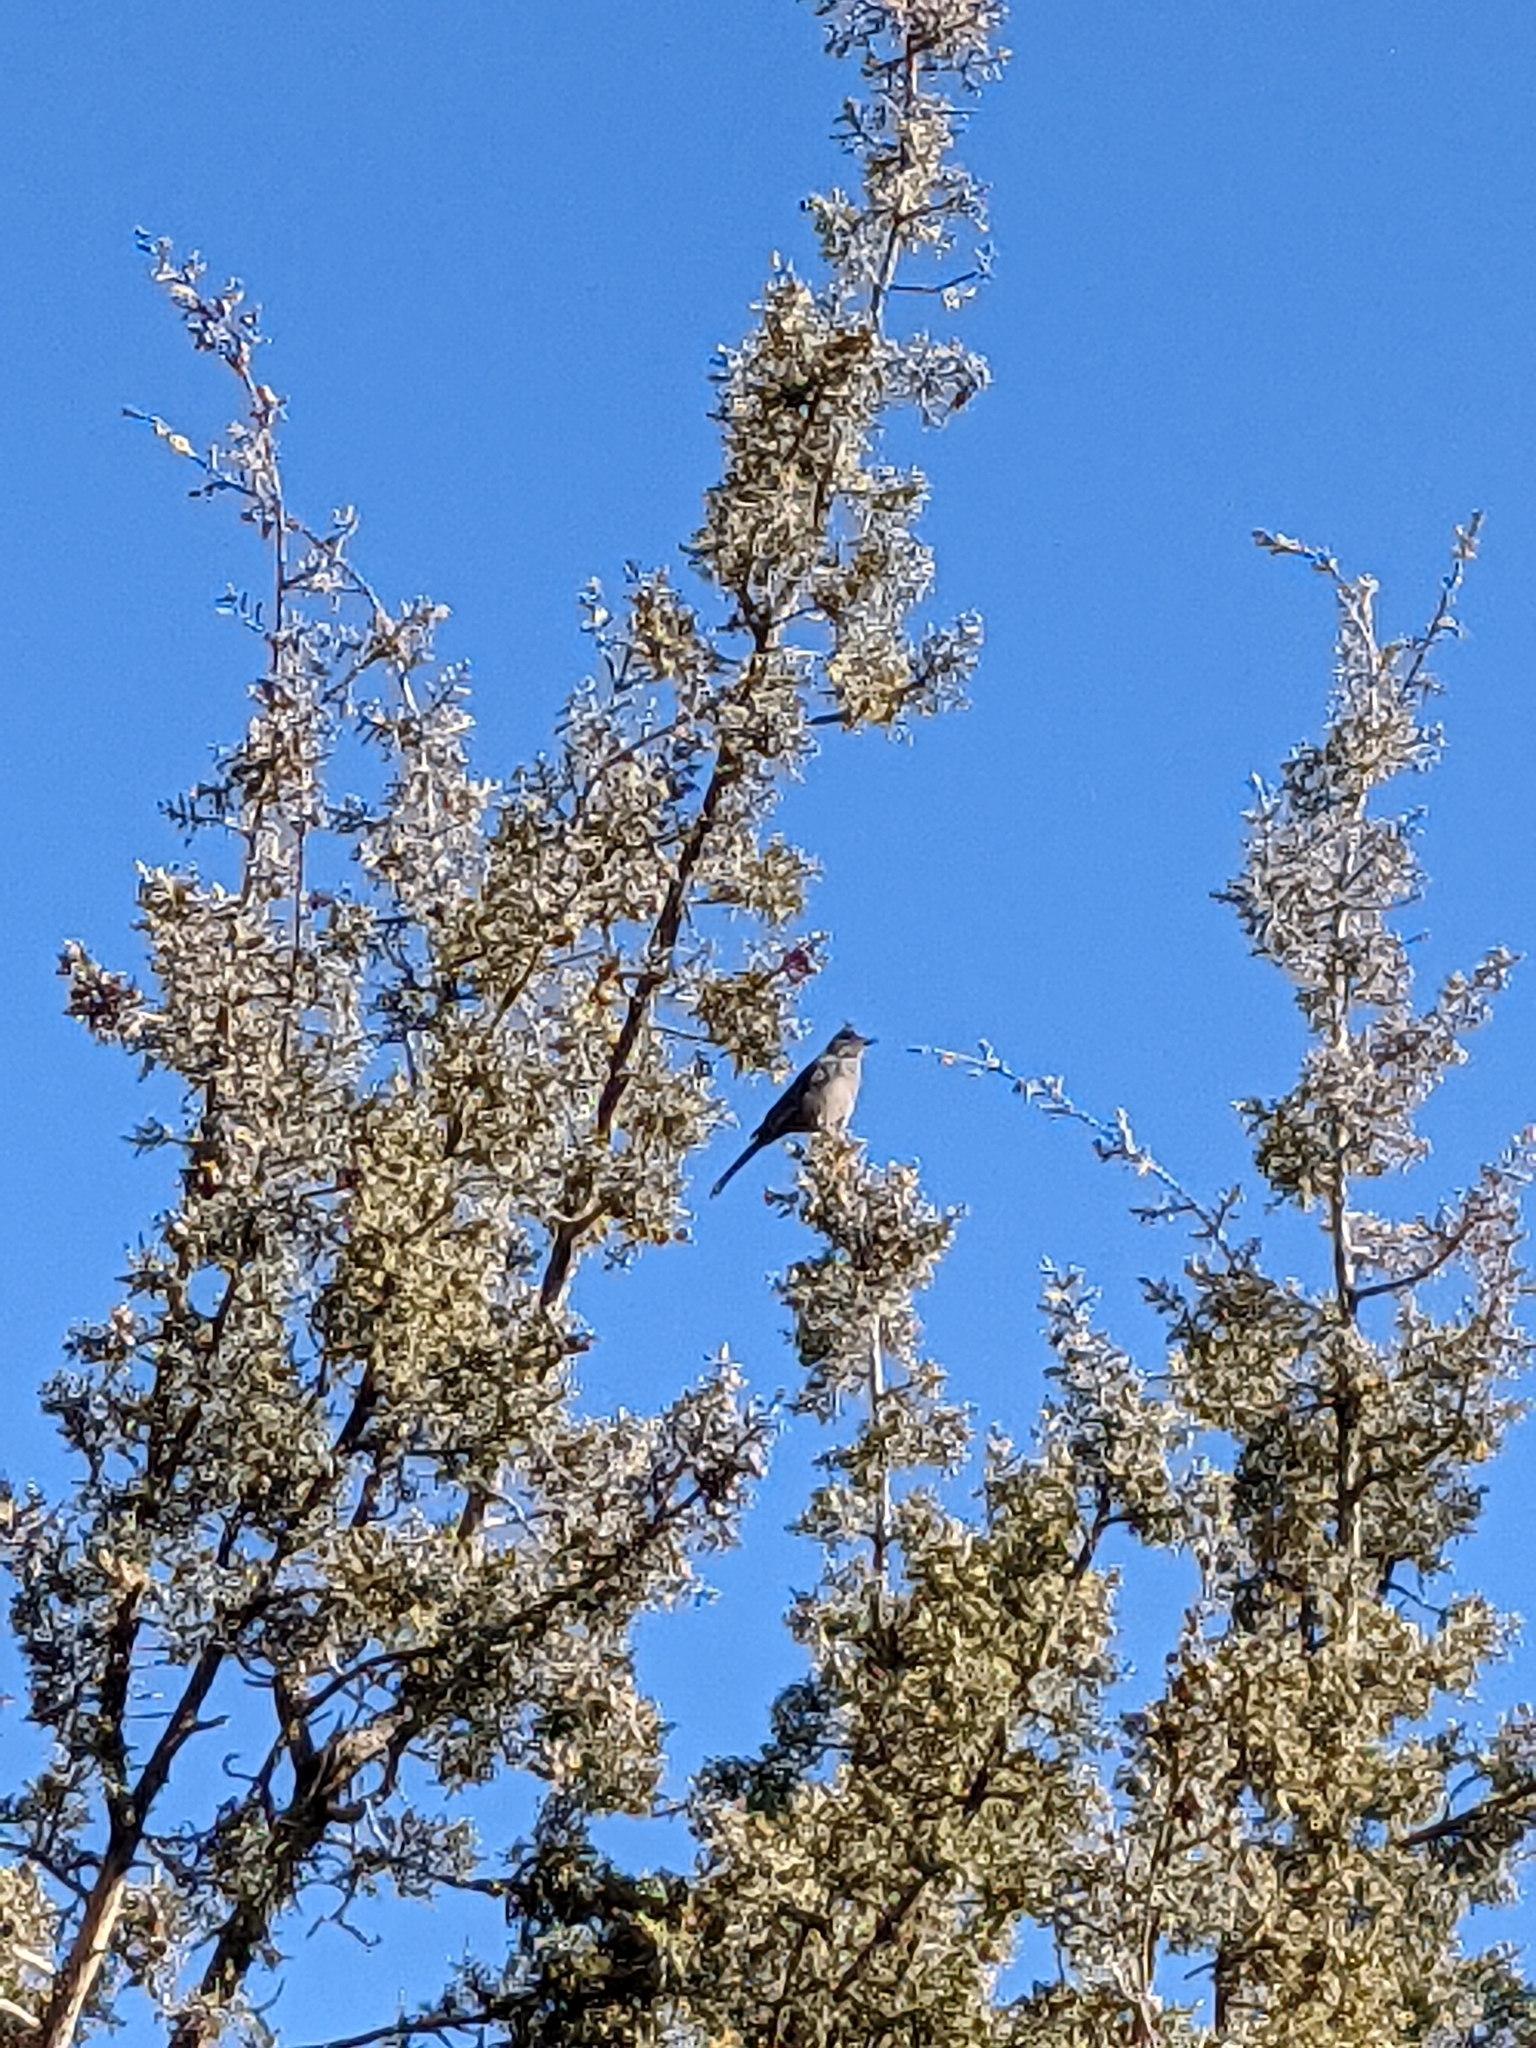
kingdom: Animalia
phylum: Chordata
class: Aves
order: Passeriformes
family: Ptilogonatidae
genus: Phainopepla
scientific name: Phainopepla nitens
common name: Phainopepla
